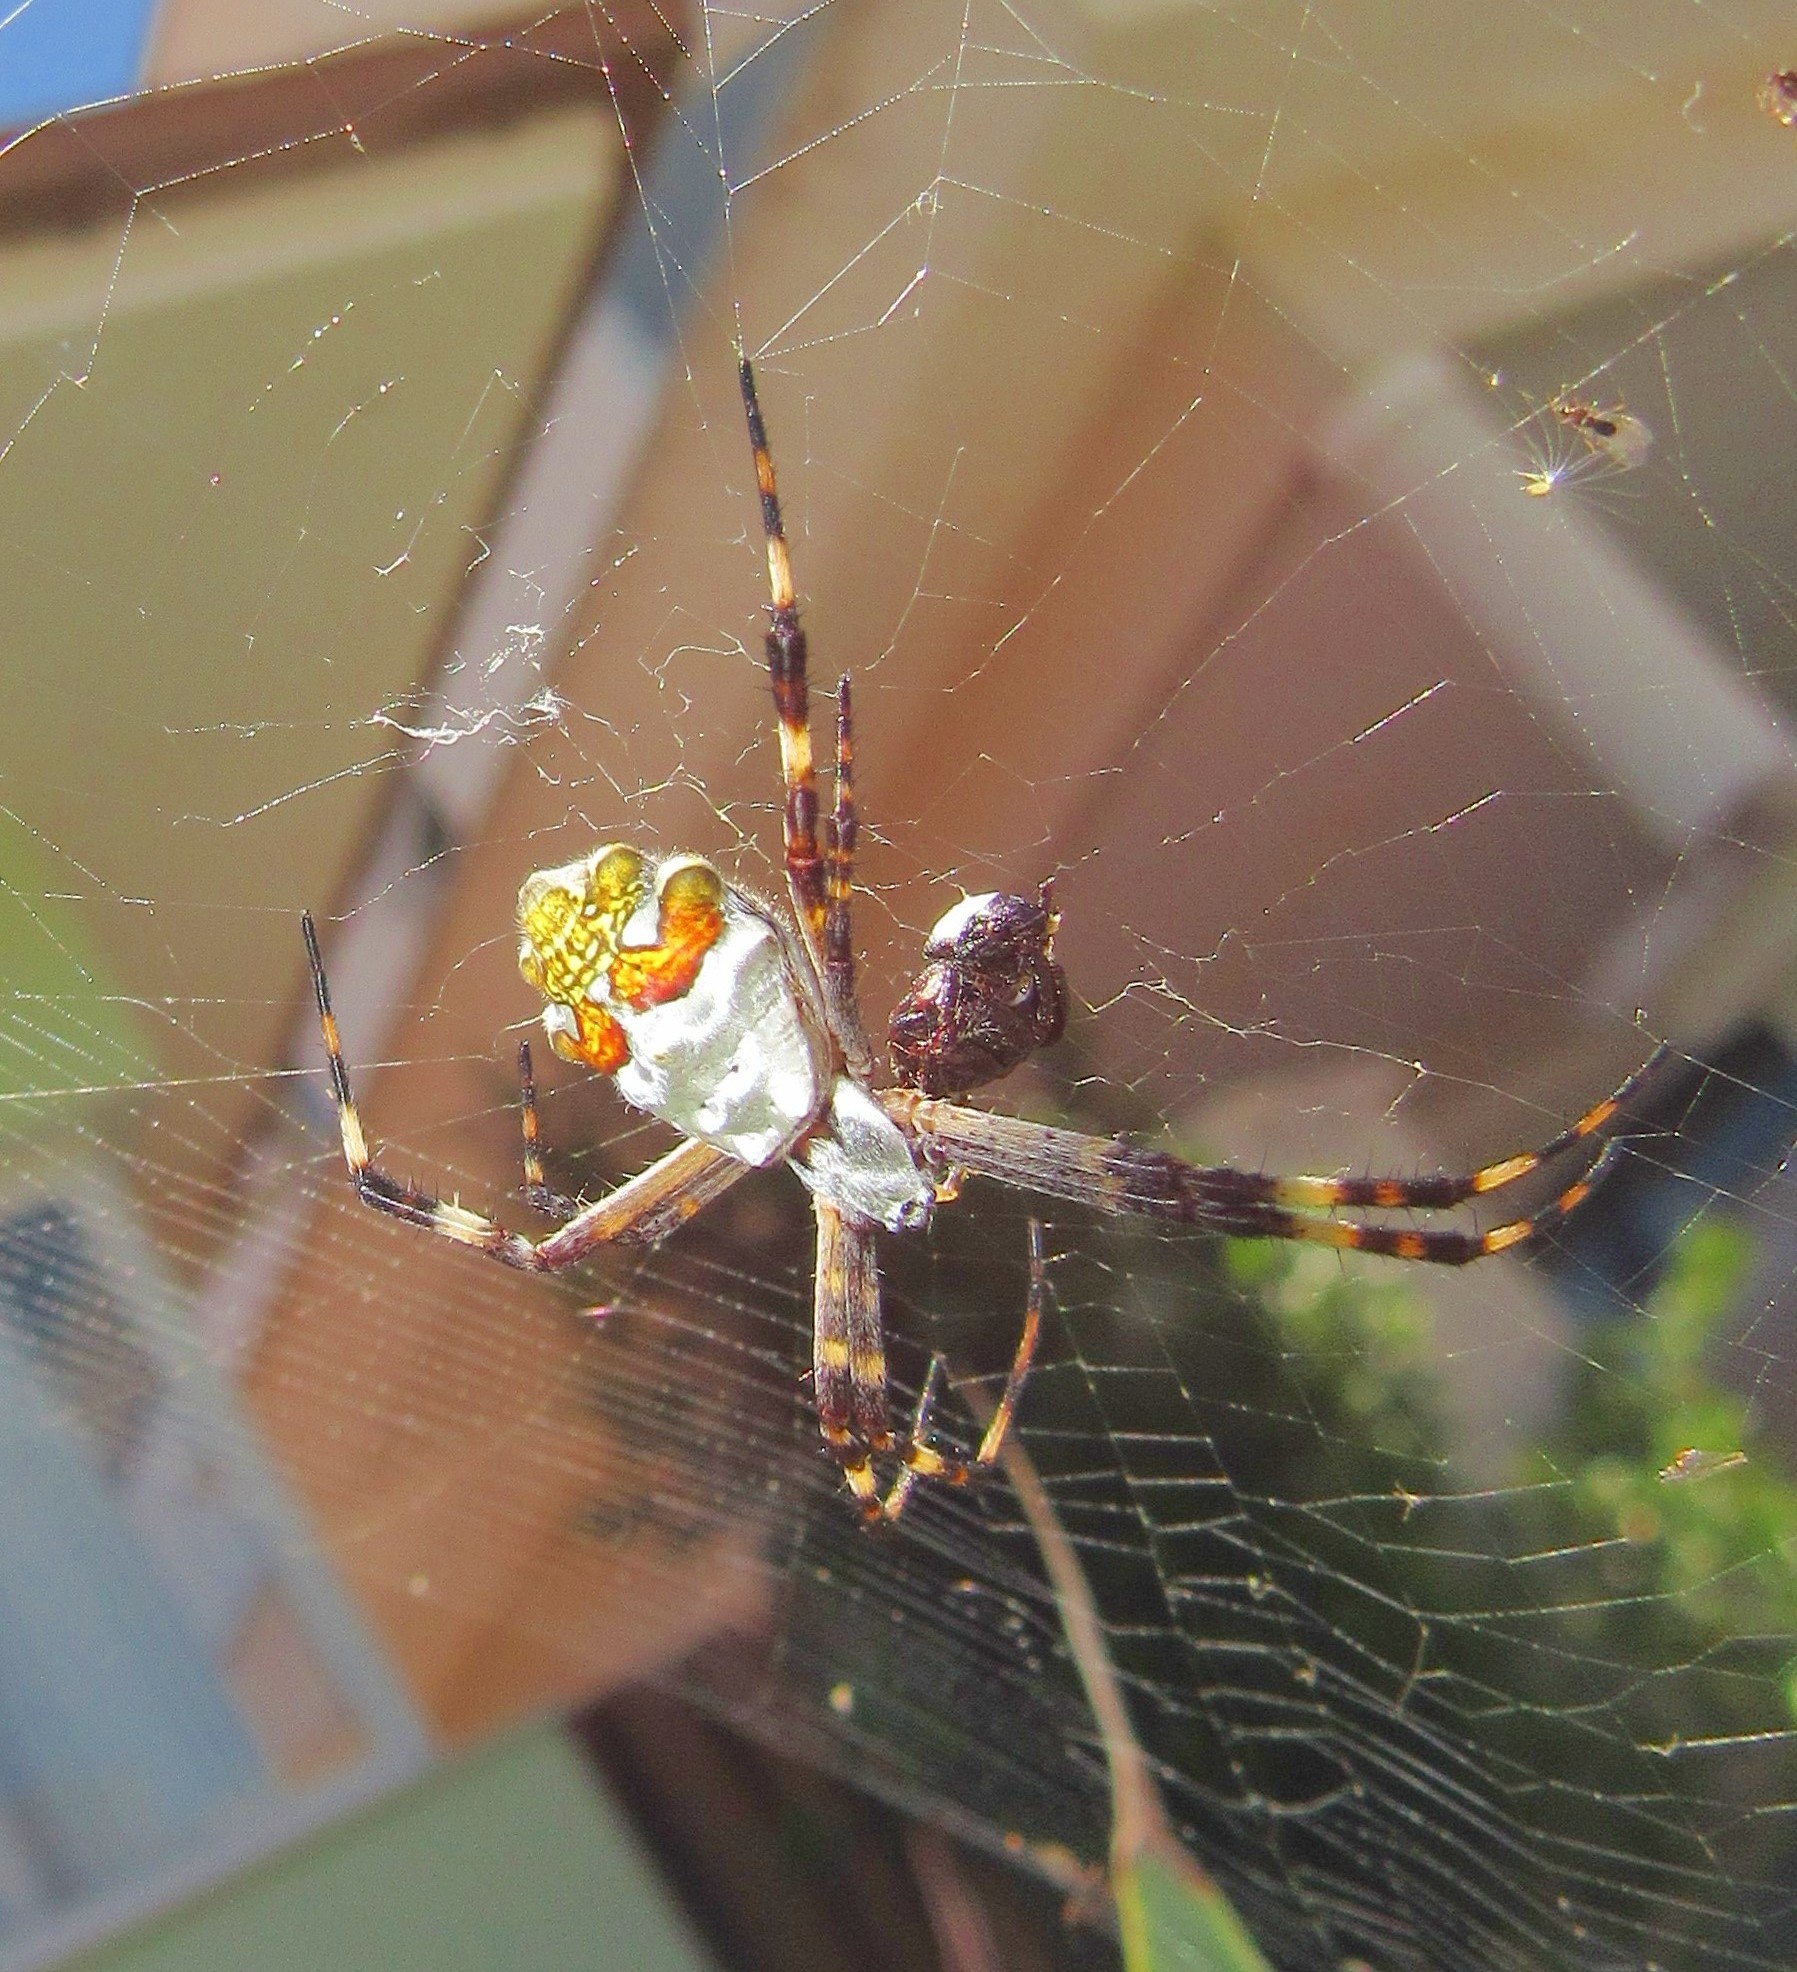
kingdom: Animalia
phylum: Arthropoda
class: Arachnida
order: Araneae
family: Araneidae
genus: Argiope
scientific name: Argiope argentata
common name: Orb weavers
